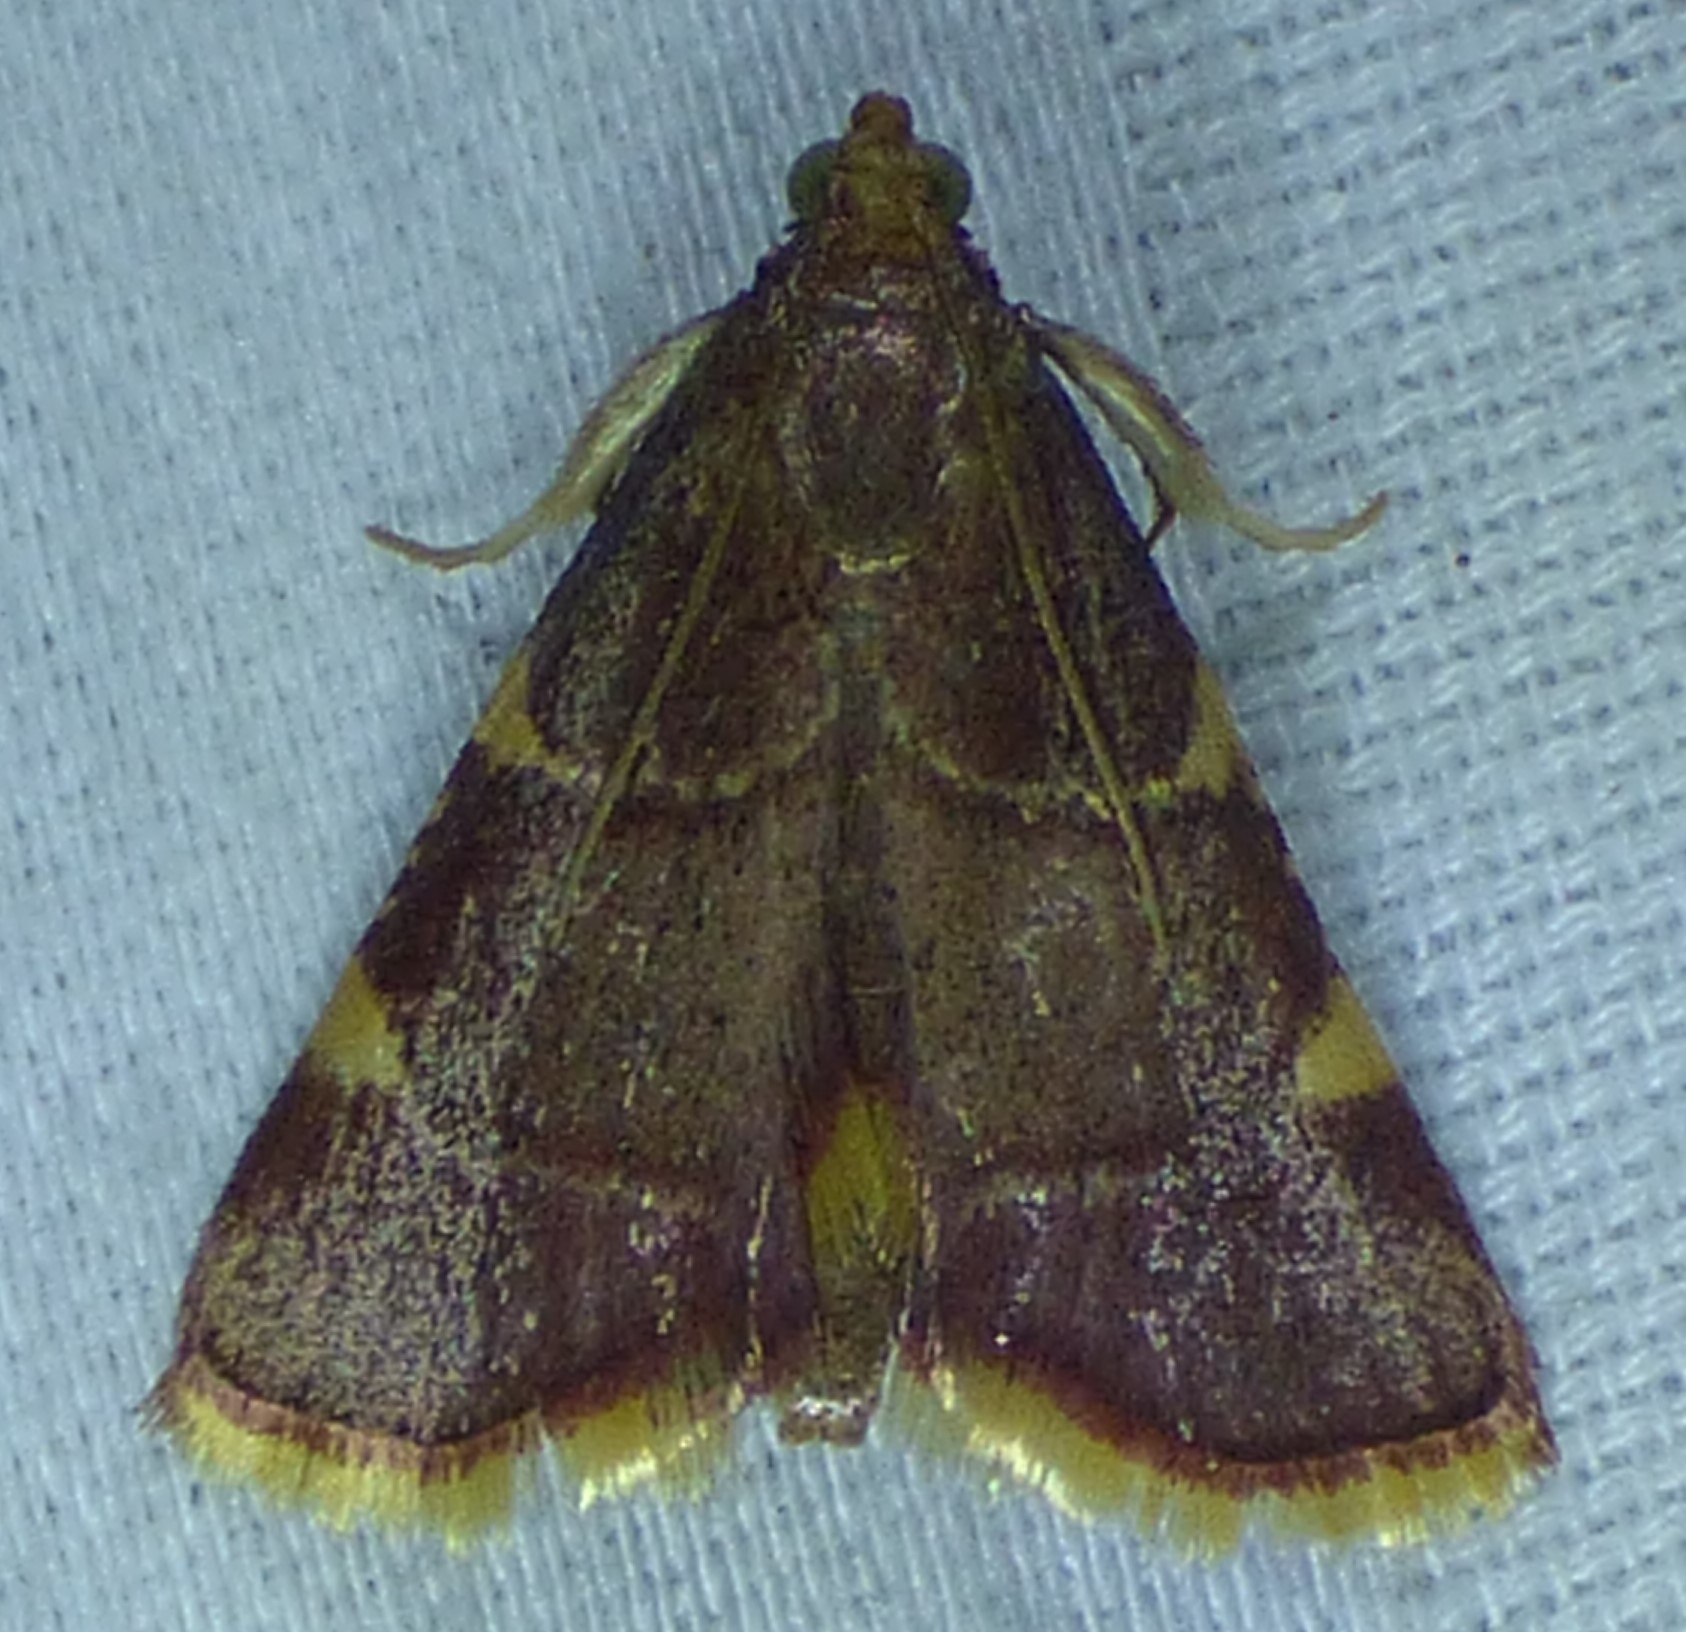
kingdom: Animalia
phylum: Arthropoda
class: Insecta
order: Lepidoptera
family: Pyralidae
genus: Hypsopygia
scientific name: Hypsopygia olinalis
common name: Yellow-fringed dolichomia moth
